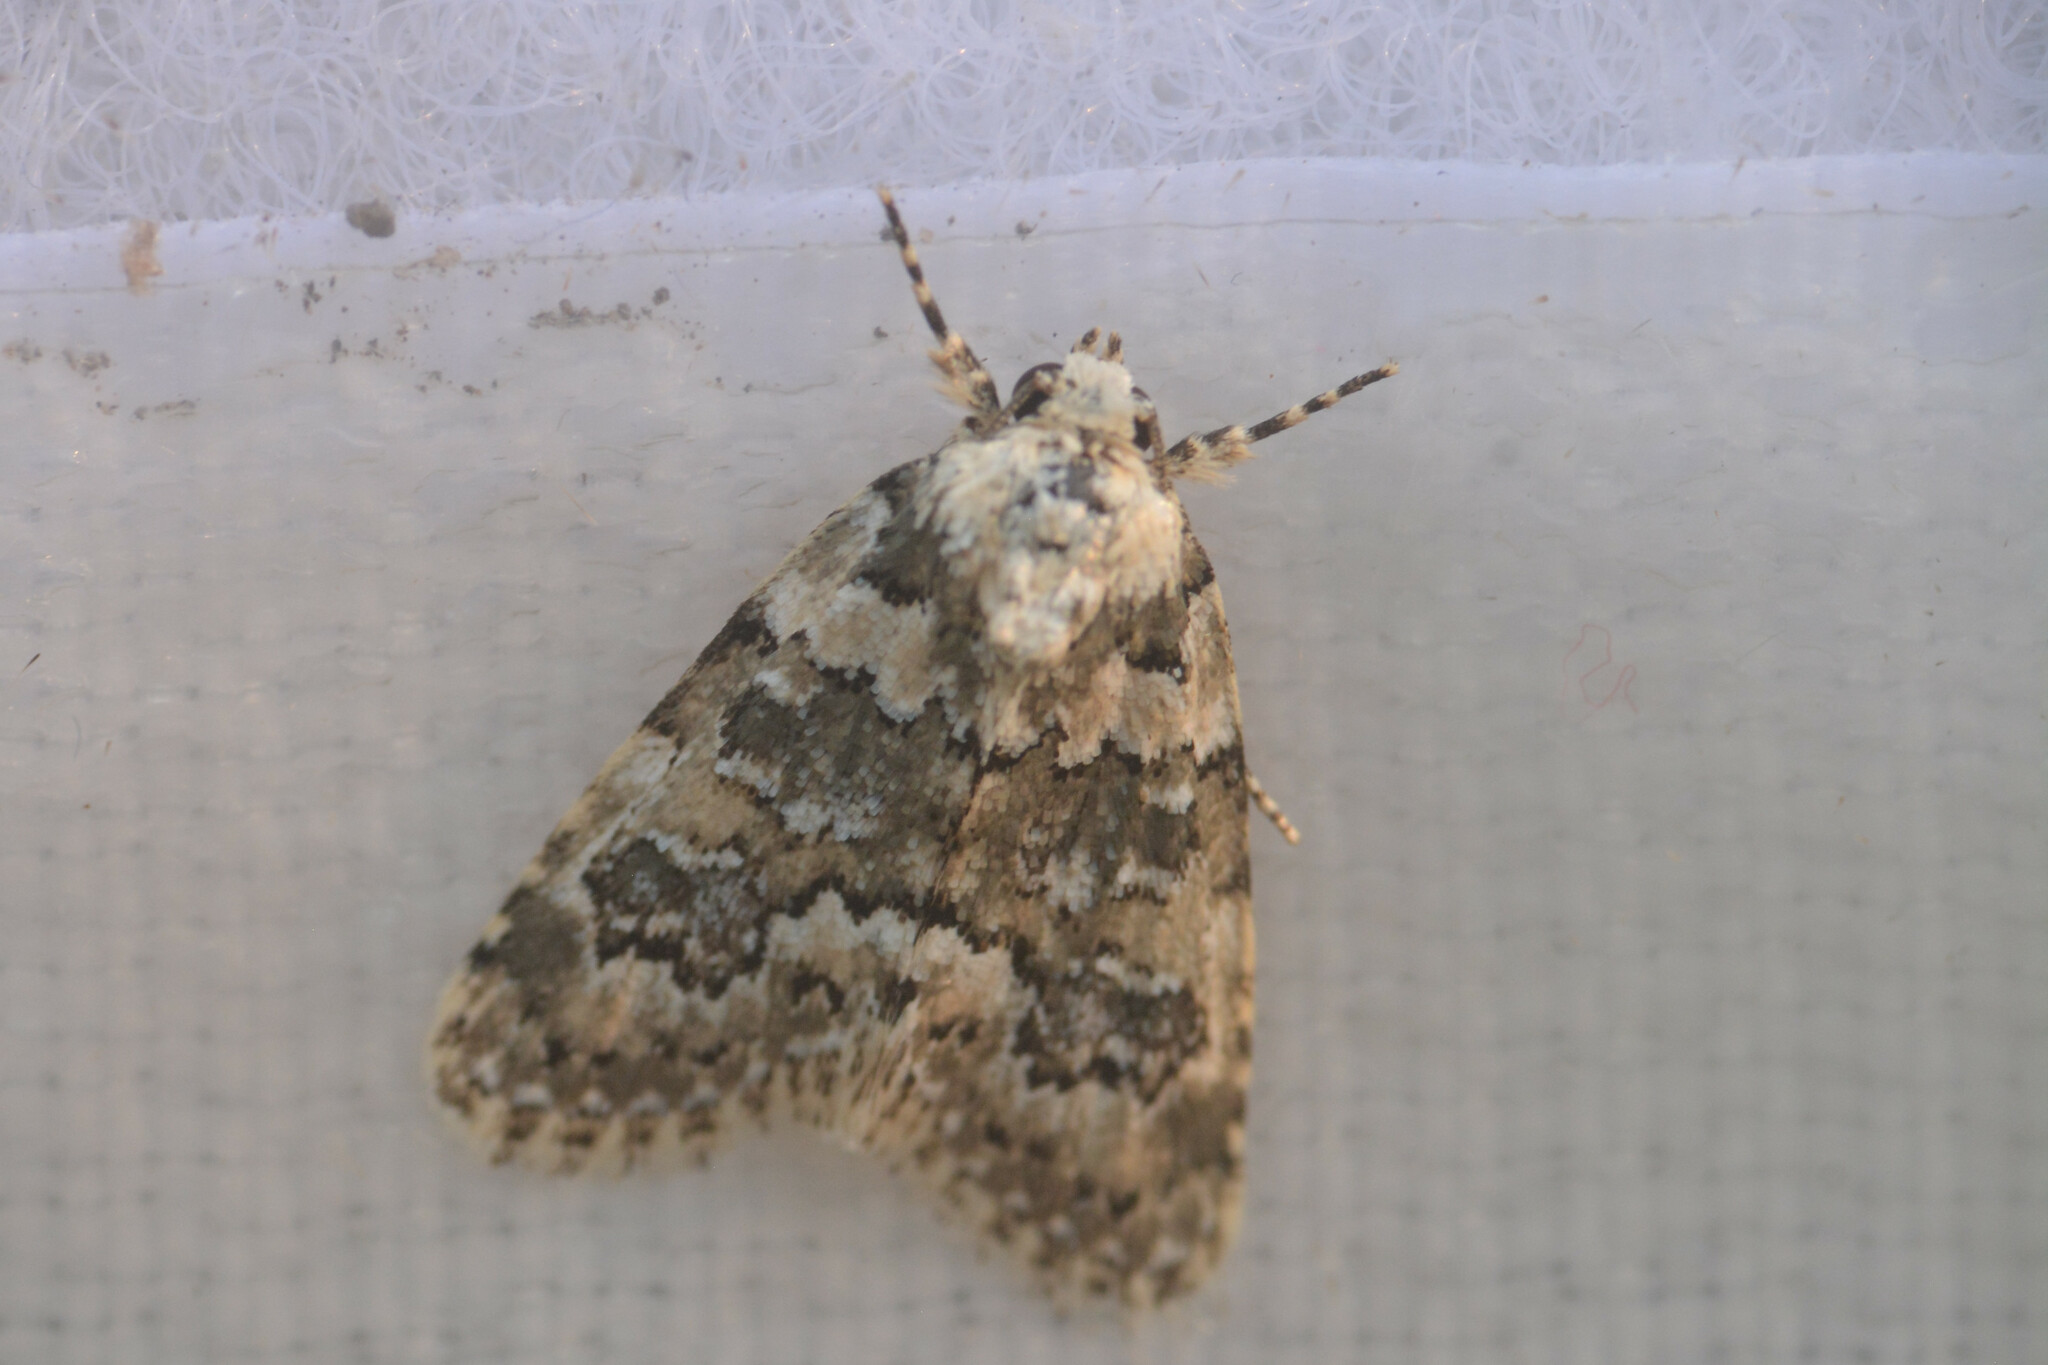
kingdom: Animalia
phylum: Arthropoda
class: Insecta
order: Lepidoptera
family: Noctuidae
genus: Bryophila
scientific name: Bryophila domestica
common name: Marbled beauty
